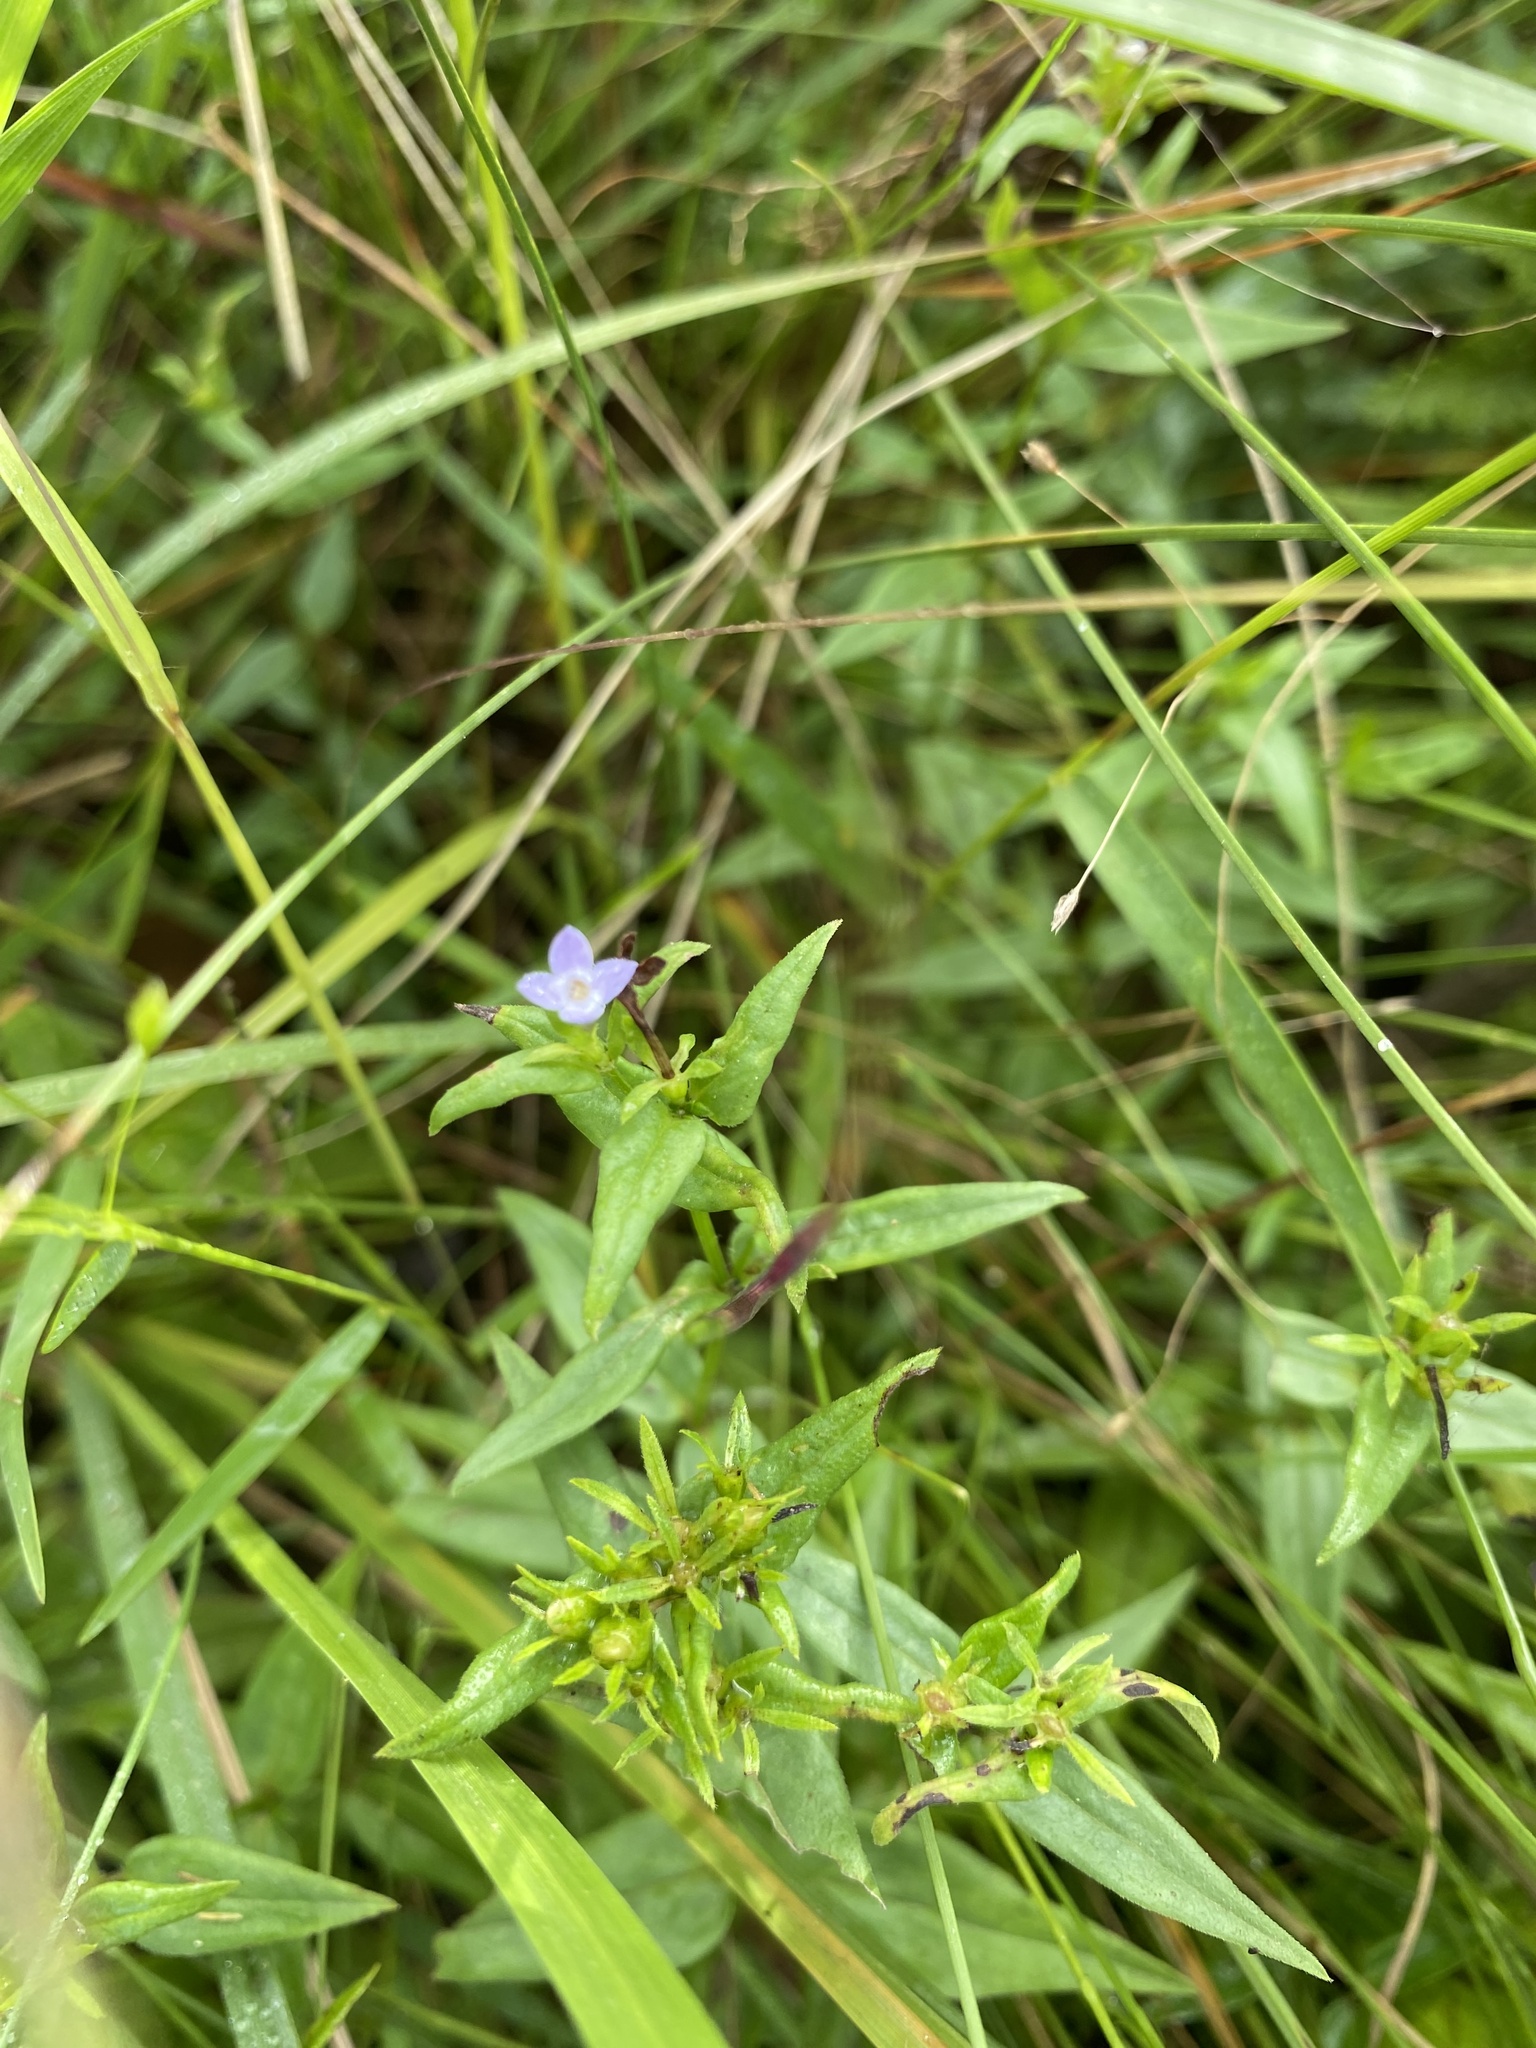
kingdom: Plantae
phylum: Tracheophyta
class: Magnoliopsida
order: Gentianales
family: Rubiaceae
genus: Conostomium
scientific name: Conostomium natalense
